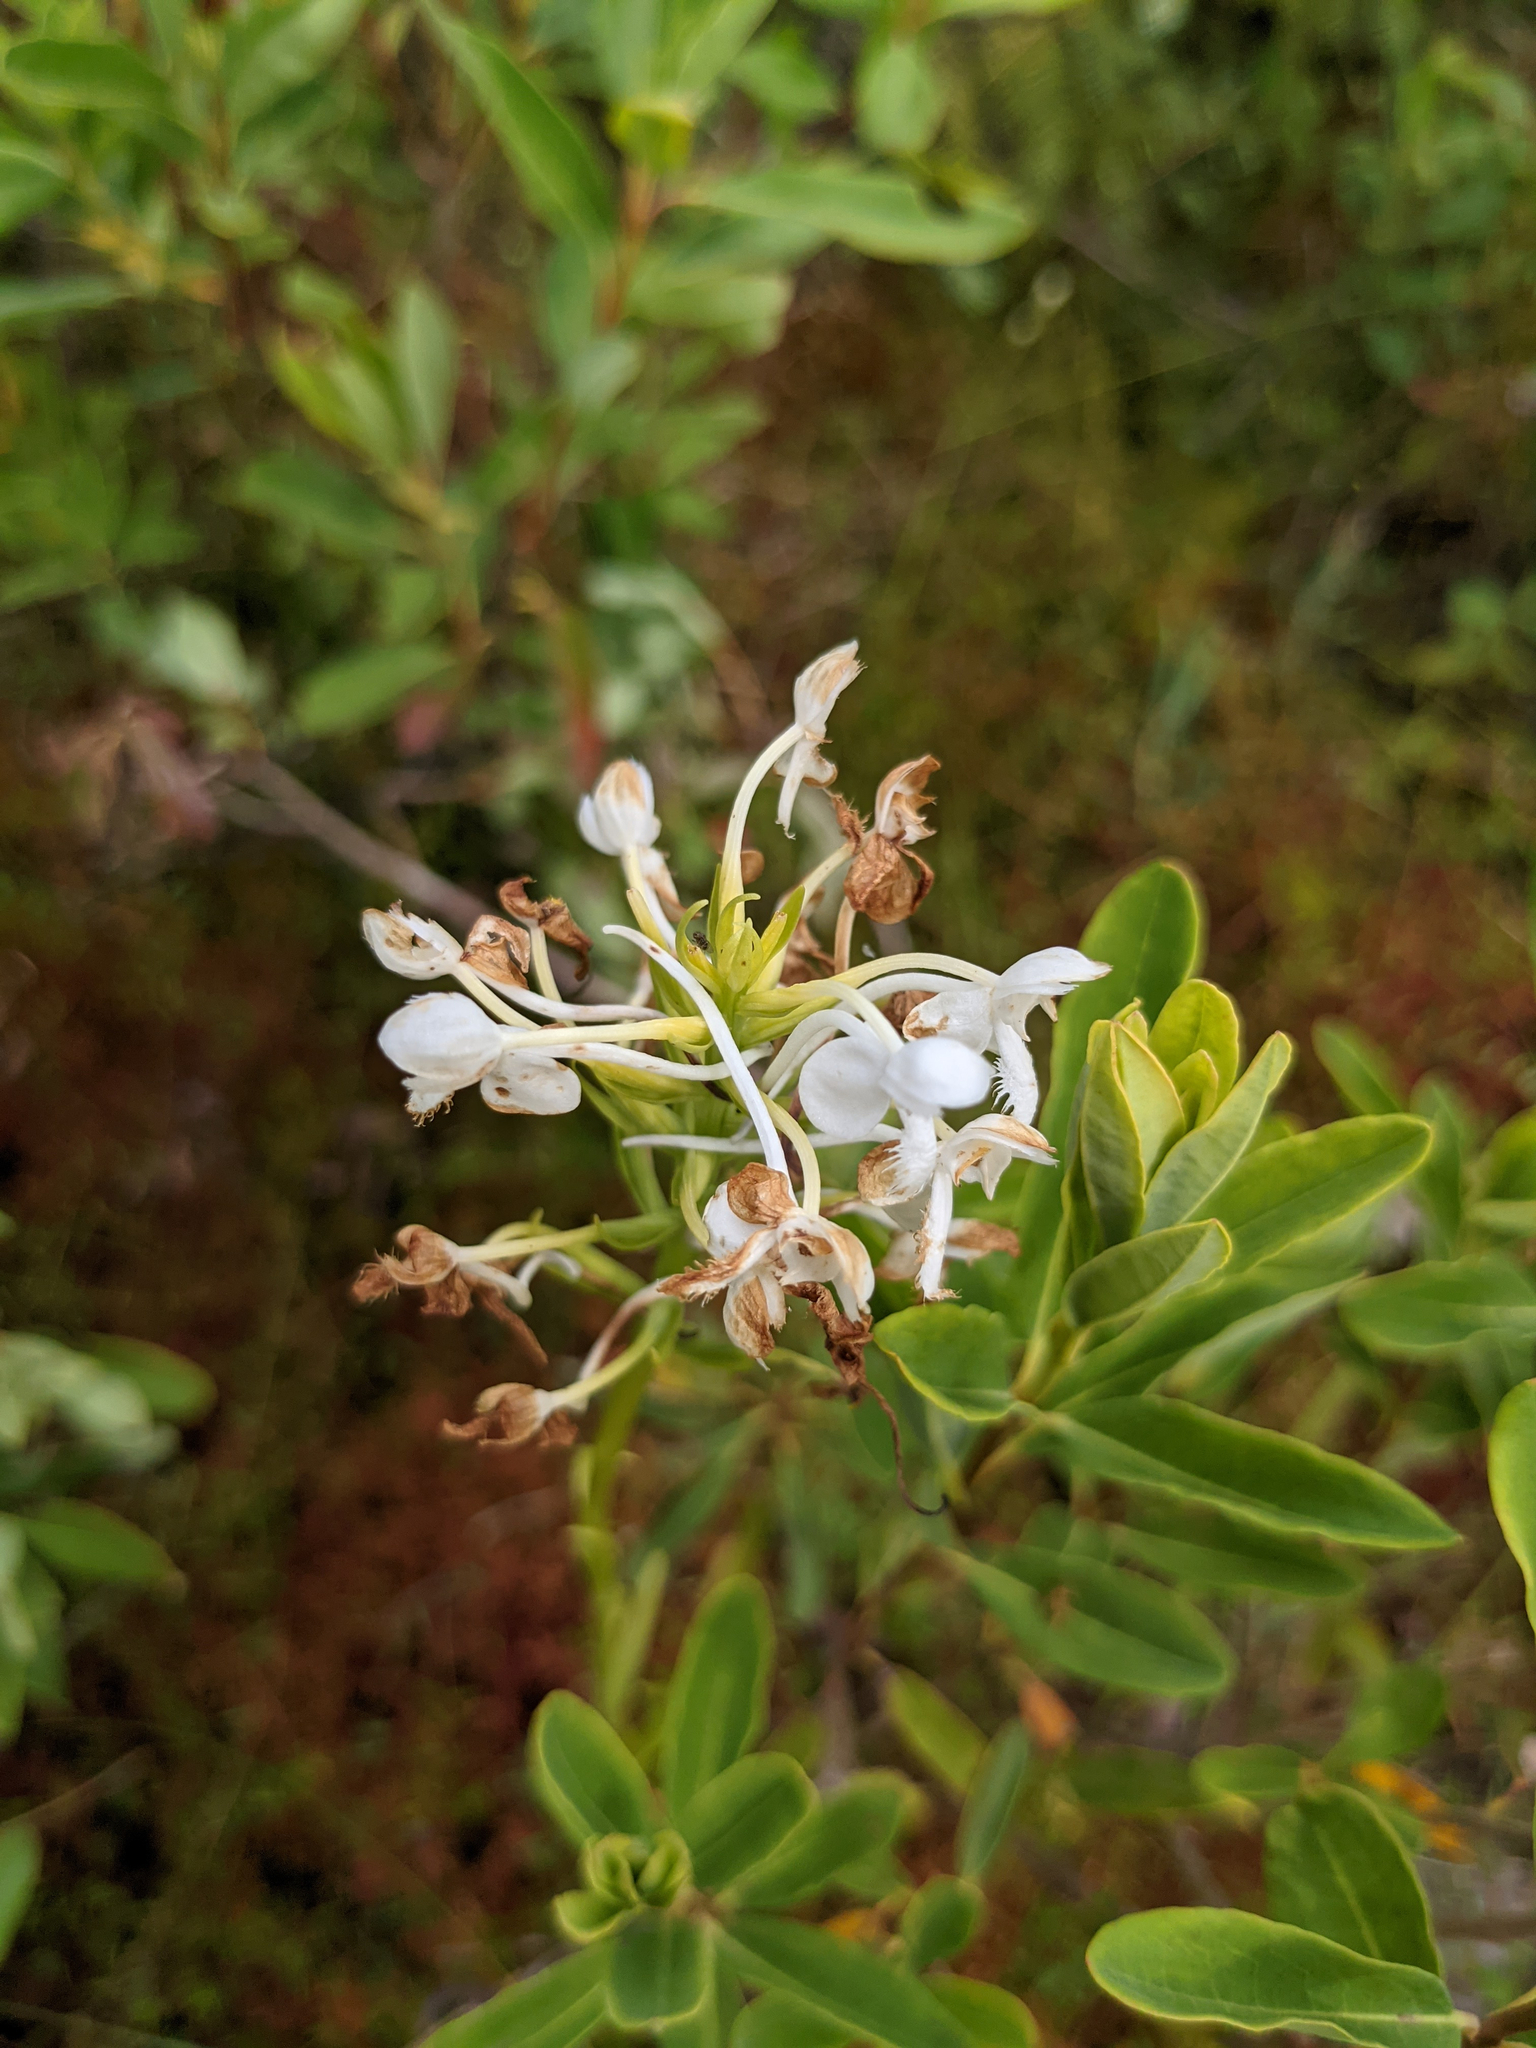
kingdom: Plantae
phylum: Tracheophyta
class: Liliopsida
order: Asparagales
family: Orchidaceae
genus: Platanthera
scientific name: Platanthera blephariglottis
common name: White fringed orchid
